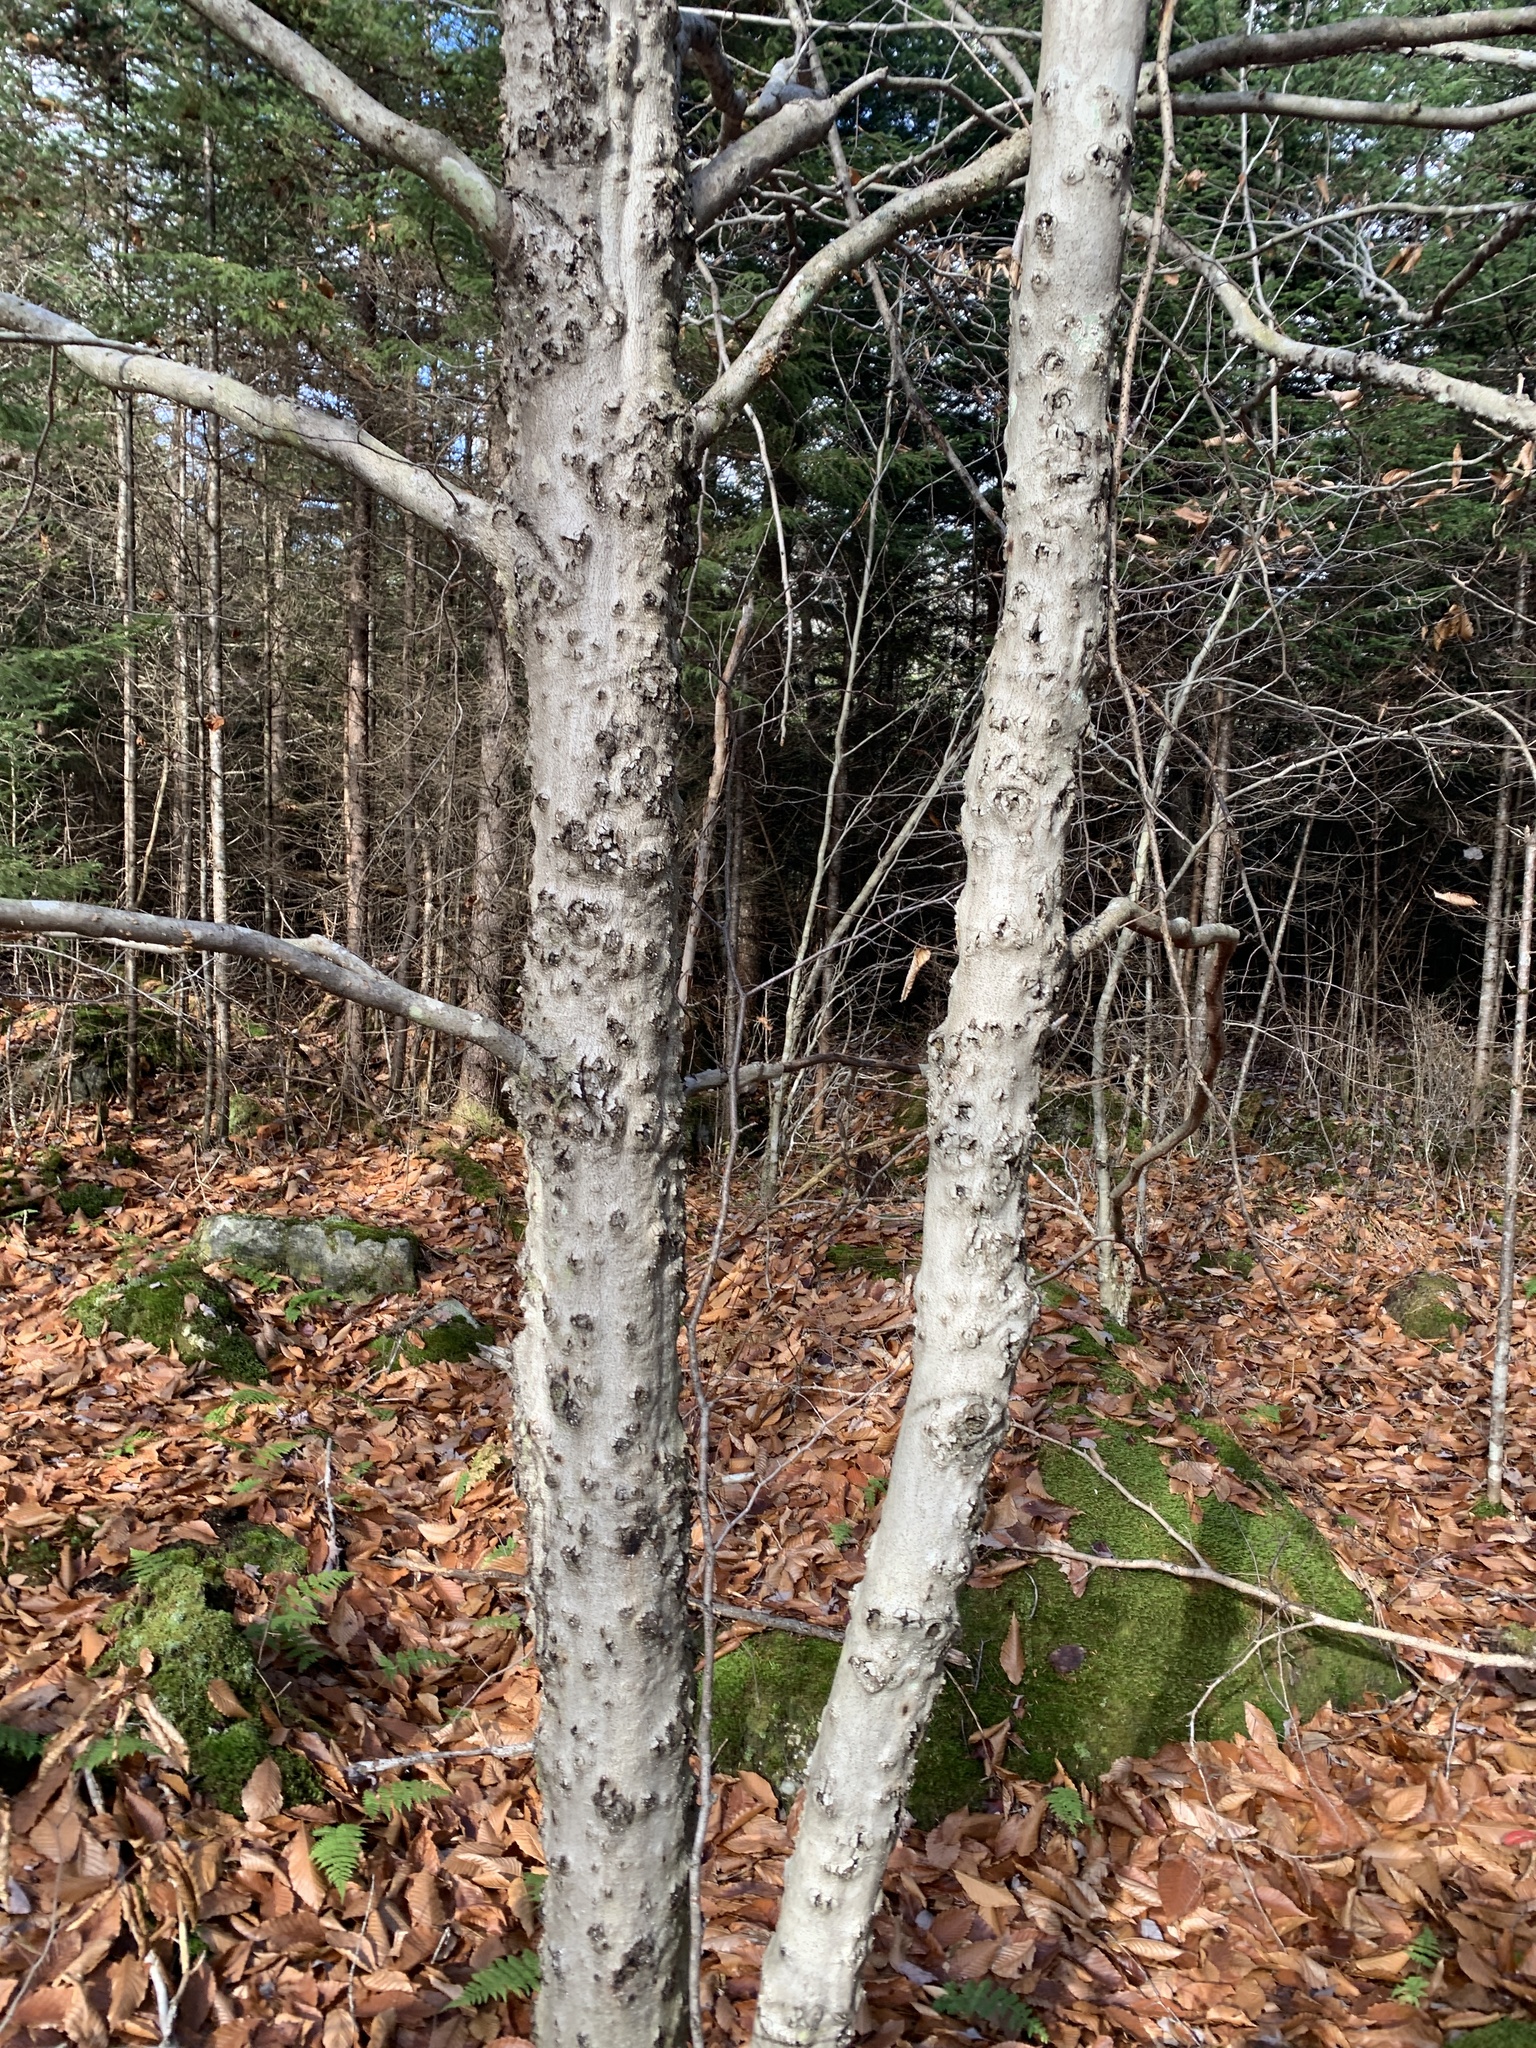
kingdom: Plantae
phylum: Tracheophyta
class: Magnoliopsida
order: Fagales
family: Fagaceae
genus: Fagus
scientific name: Fagus grandifolia
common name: American beech
